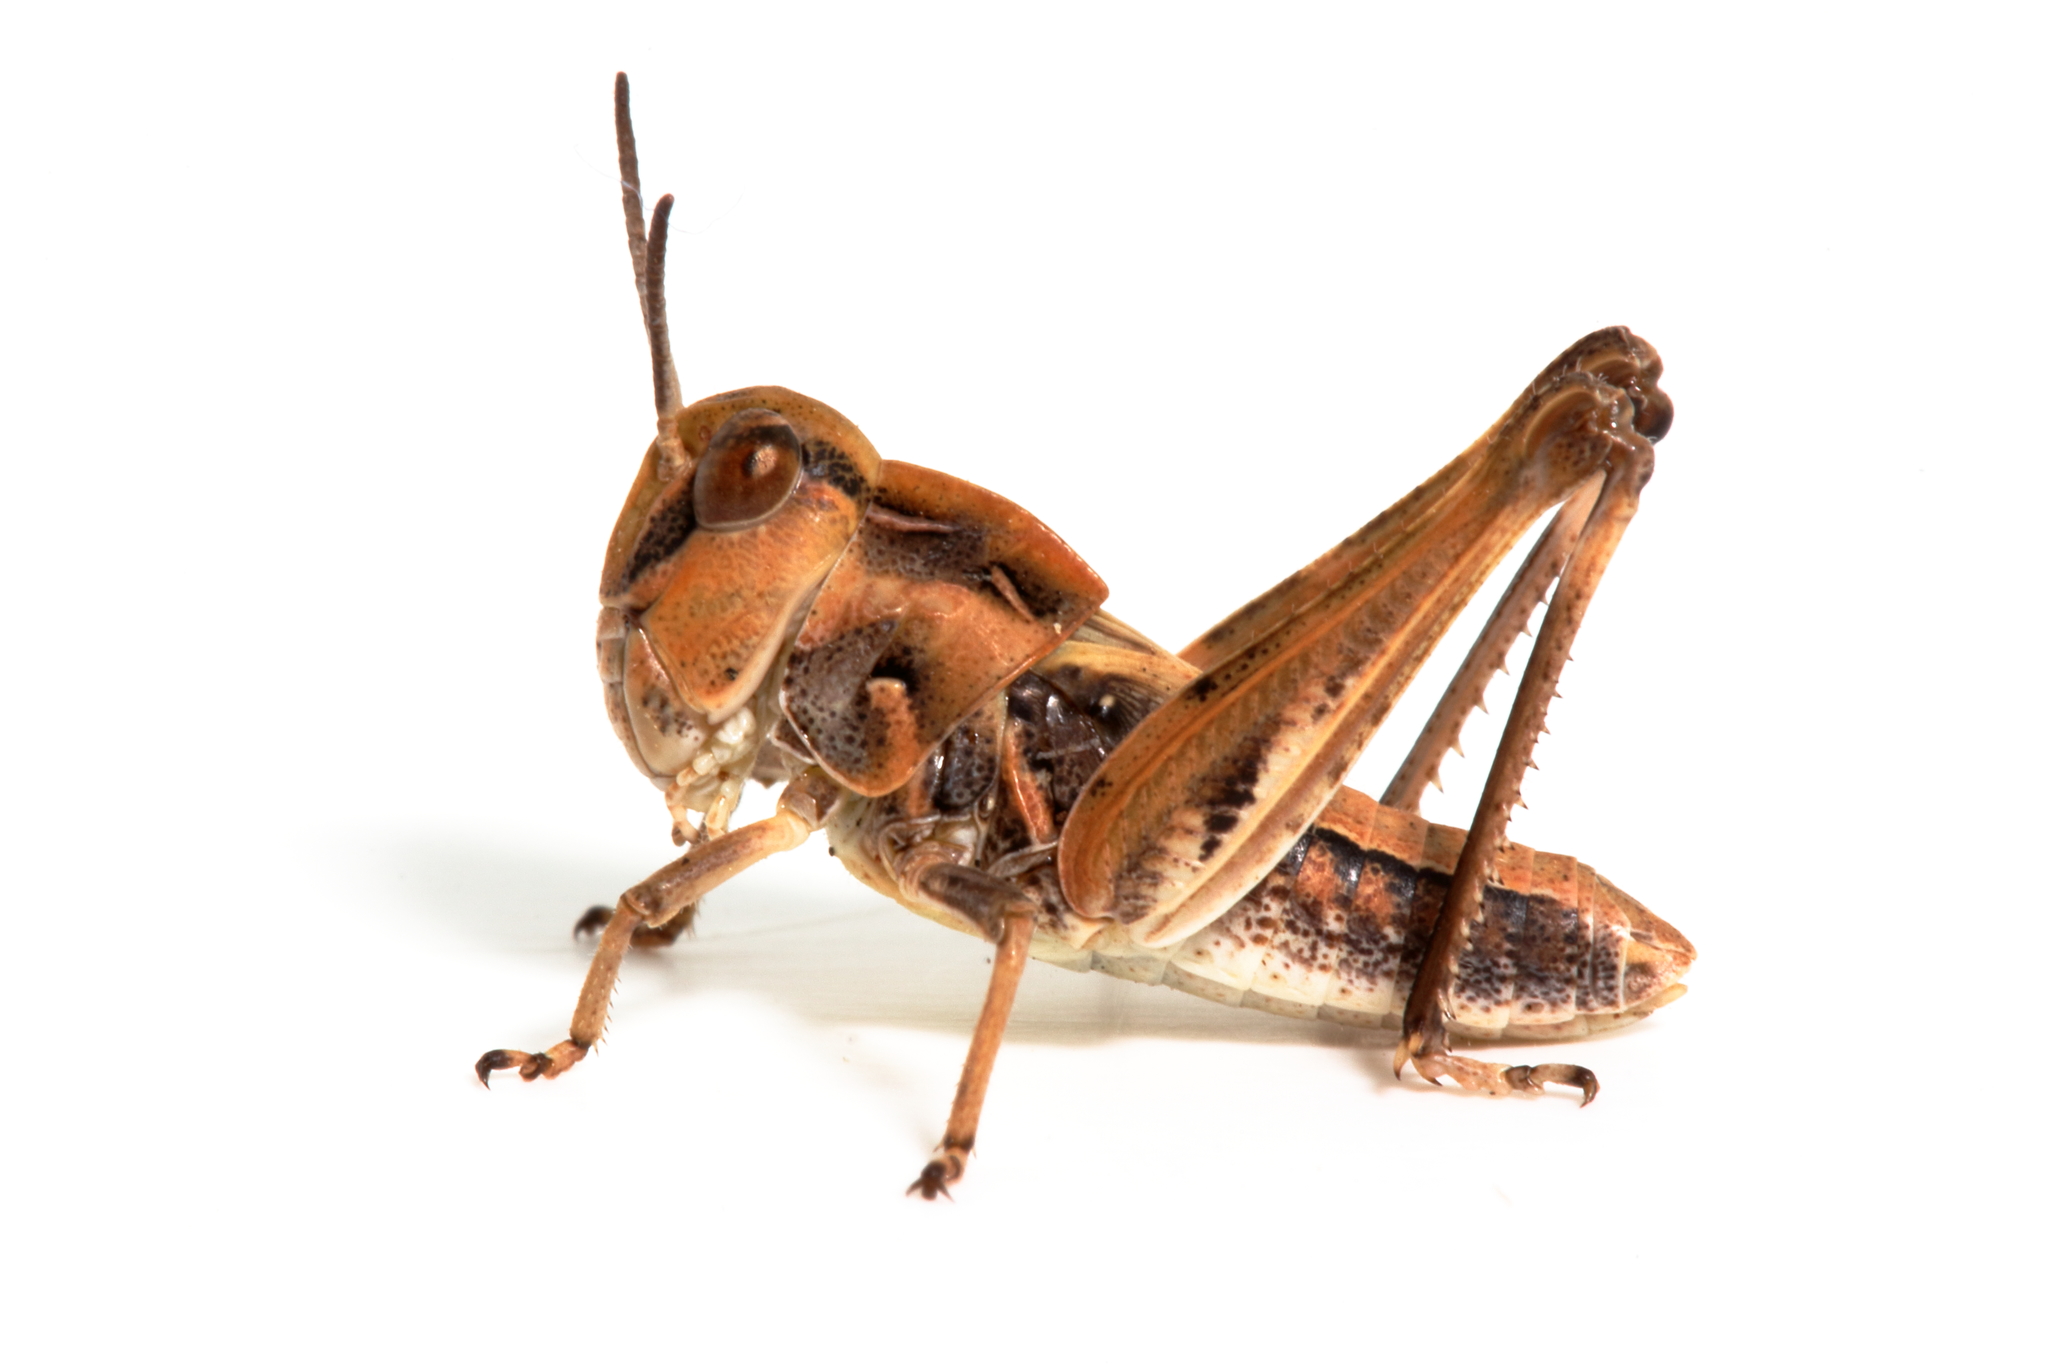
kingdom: Animalia
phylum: Arthropoda
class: Insecta
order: Orthoptera
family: Acrididae
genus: Oedaleus
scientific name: Oedaleus australis
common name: Eastern oedaleus
